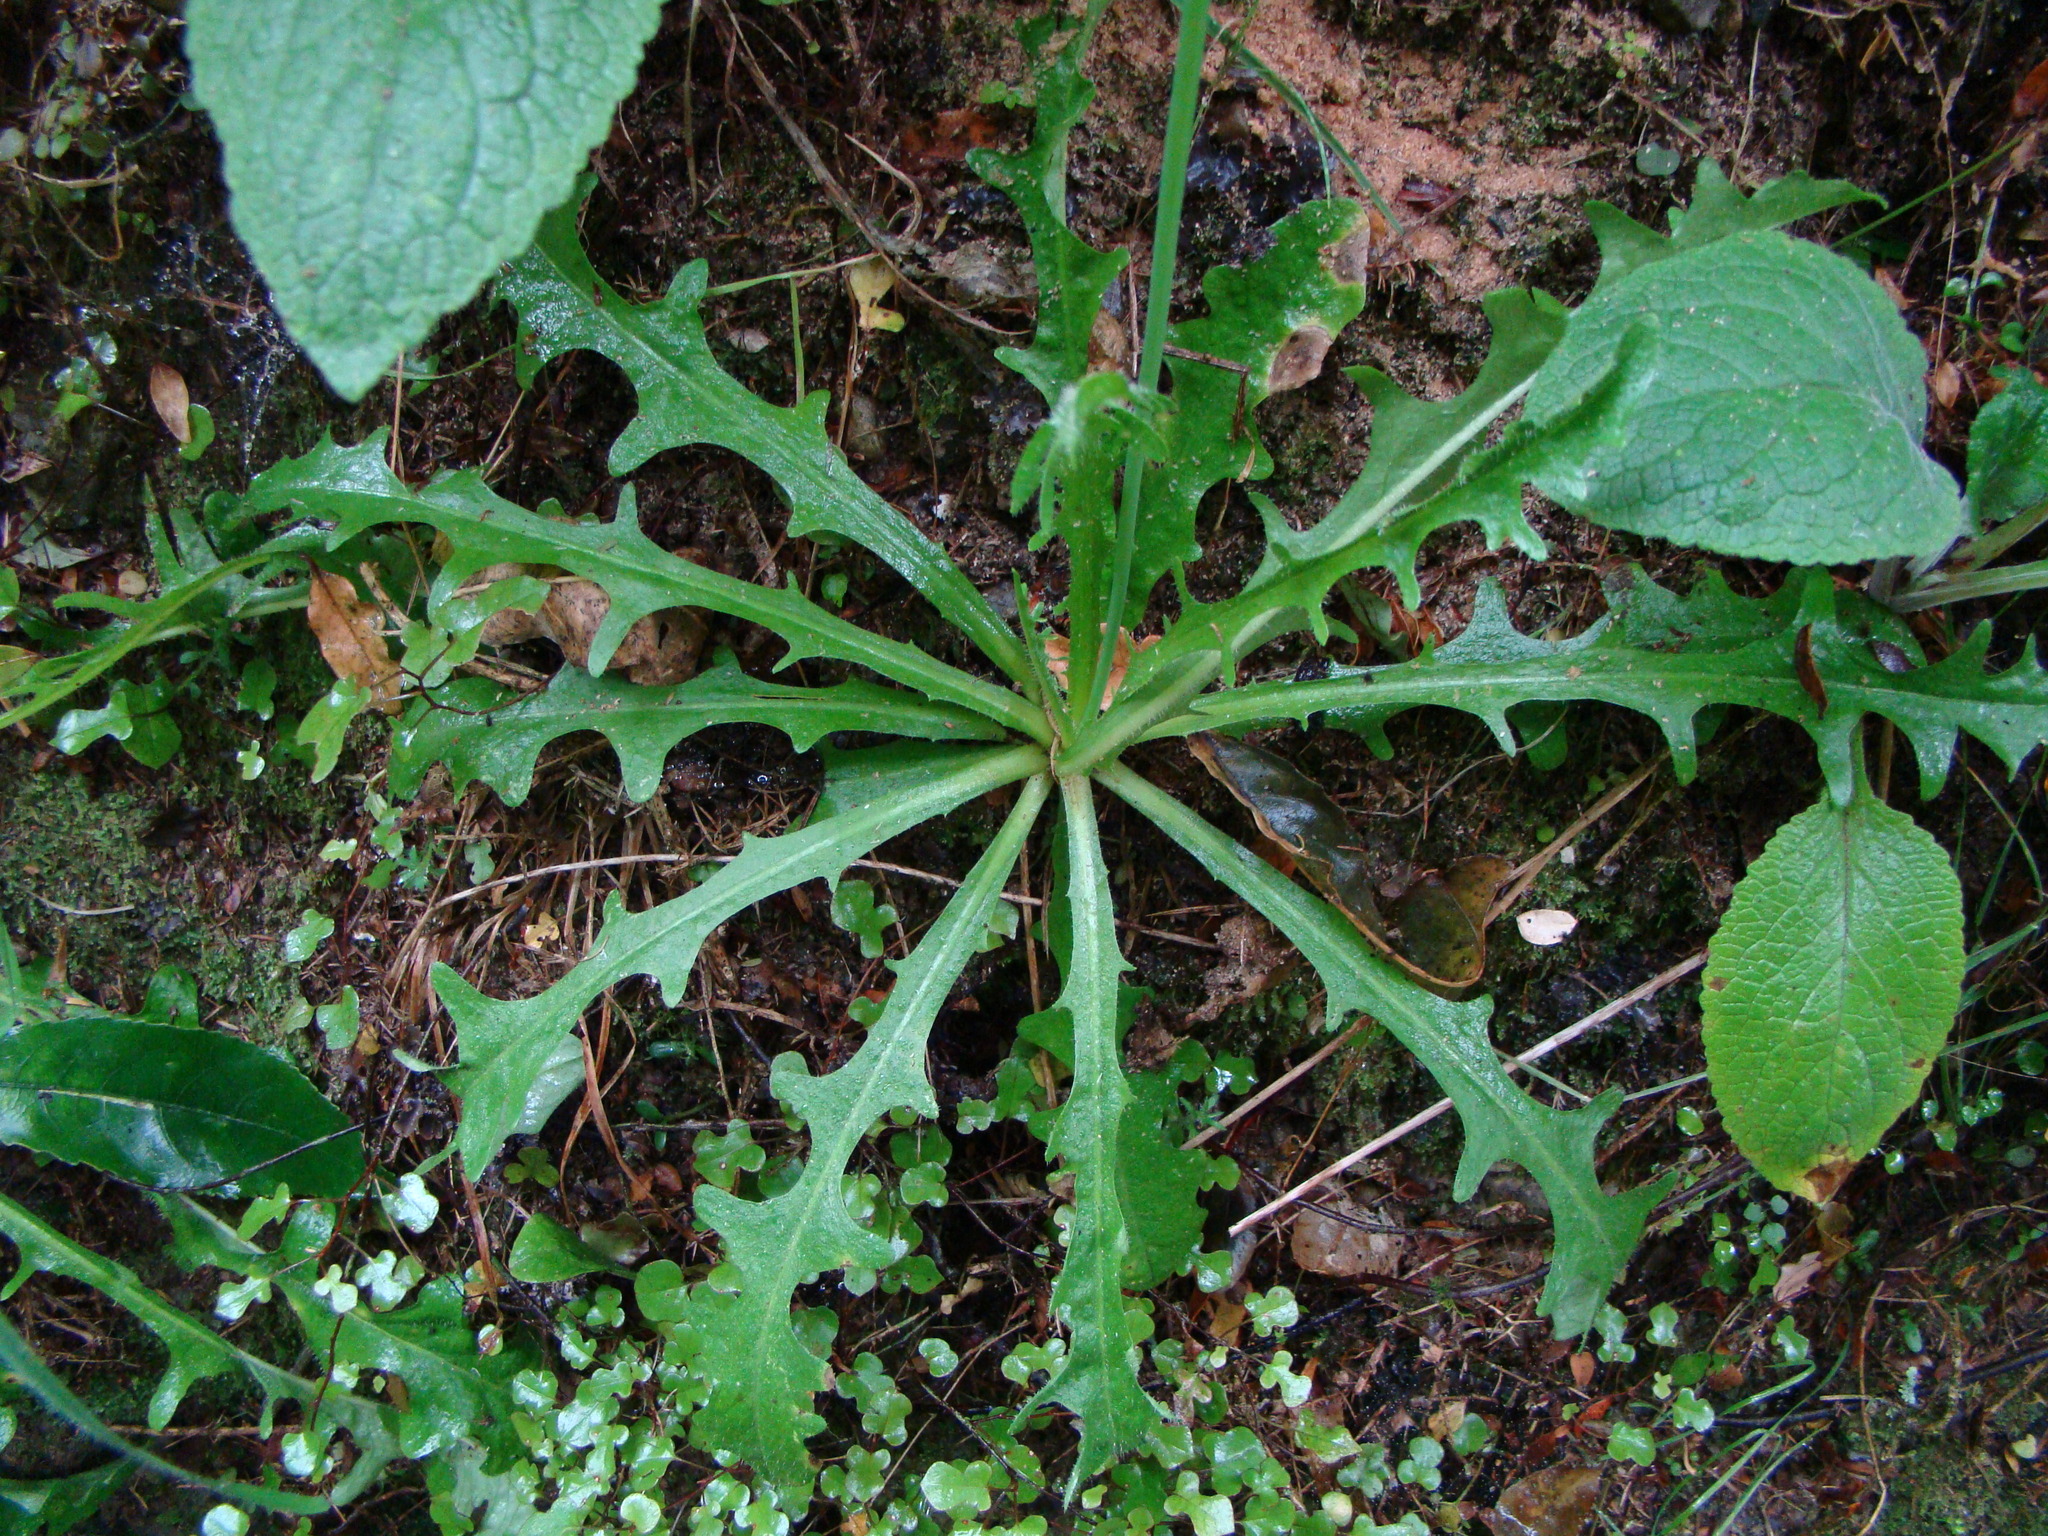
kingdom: Plantae
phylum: Tracheophyta
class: Magnoliopsida
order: Asterales
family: Asteraceae
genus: Hypochaeris
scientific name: Hypochaeris radicata
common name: Flatweed
